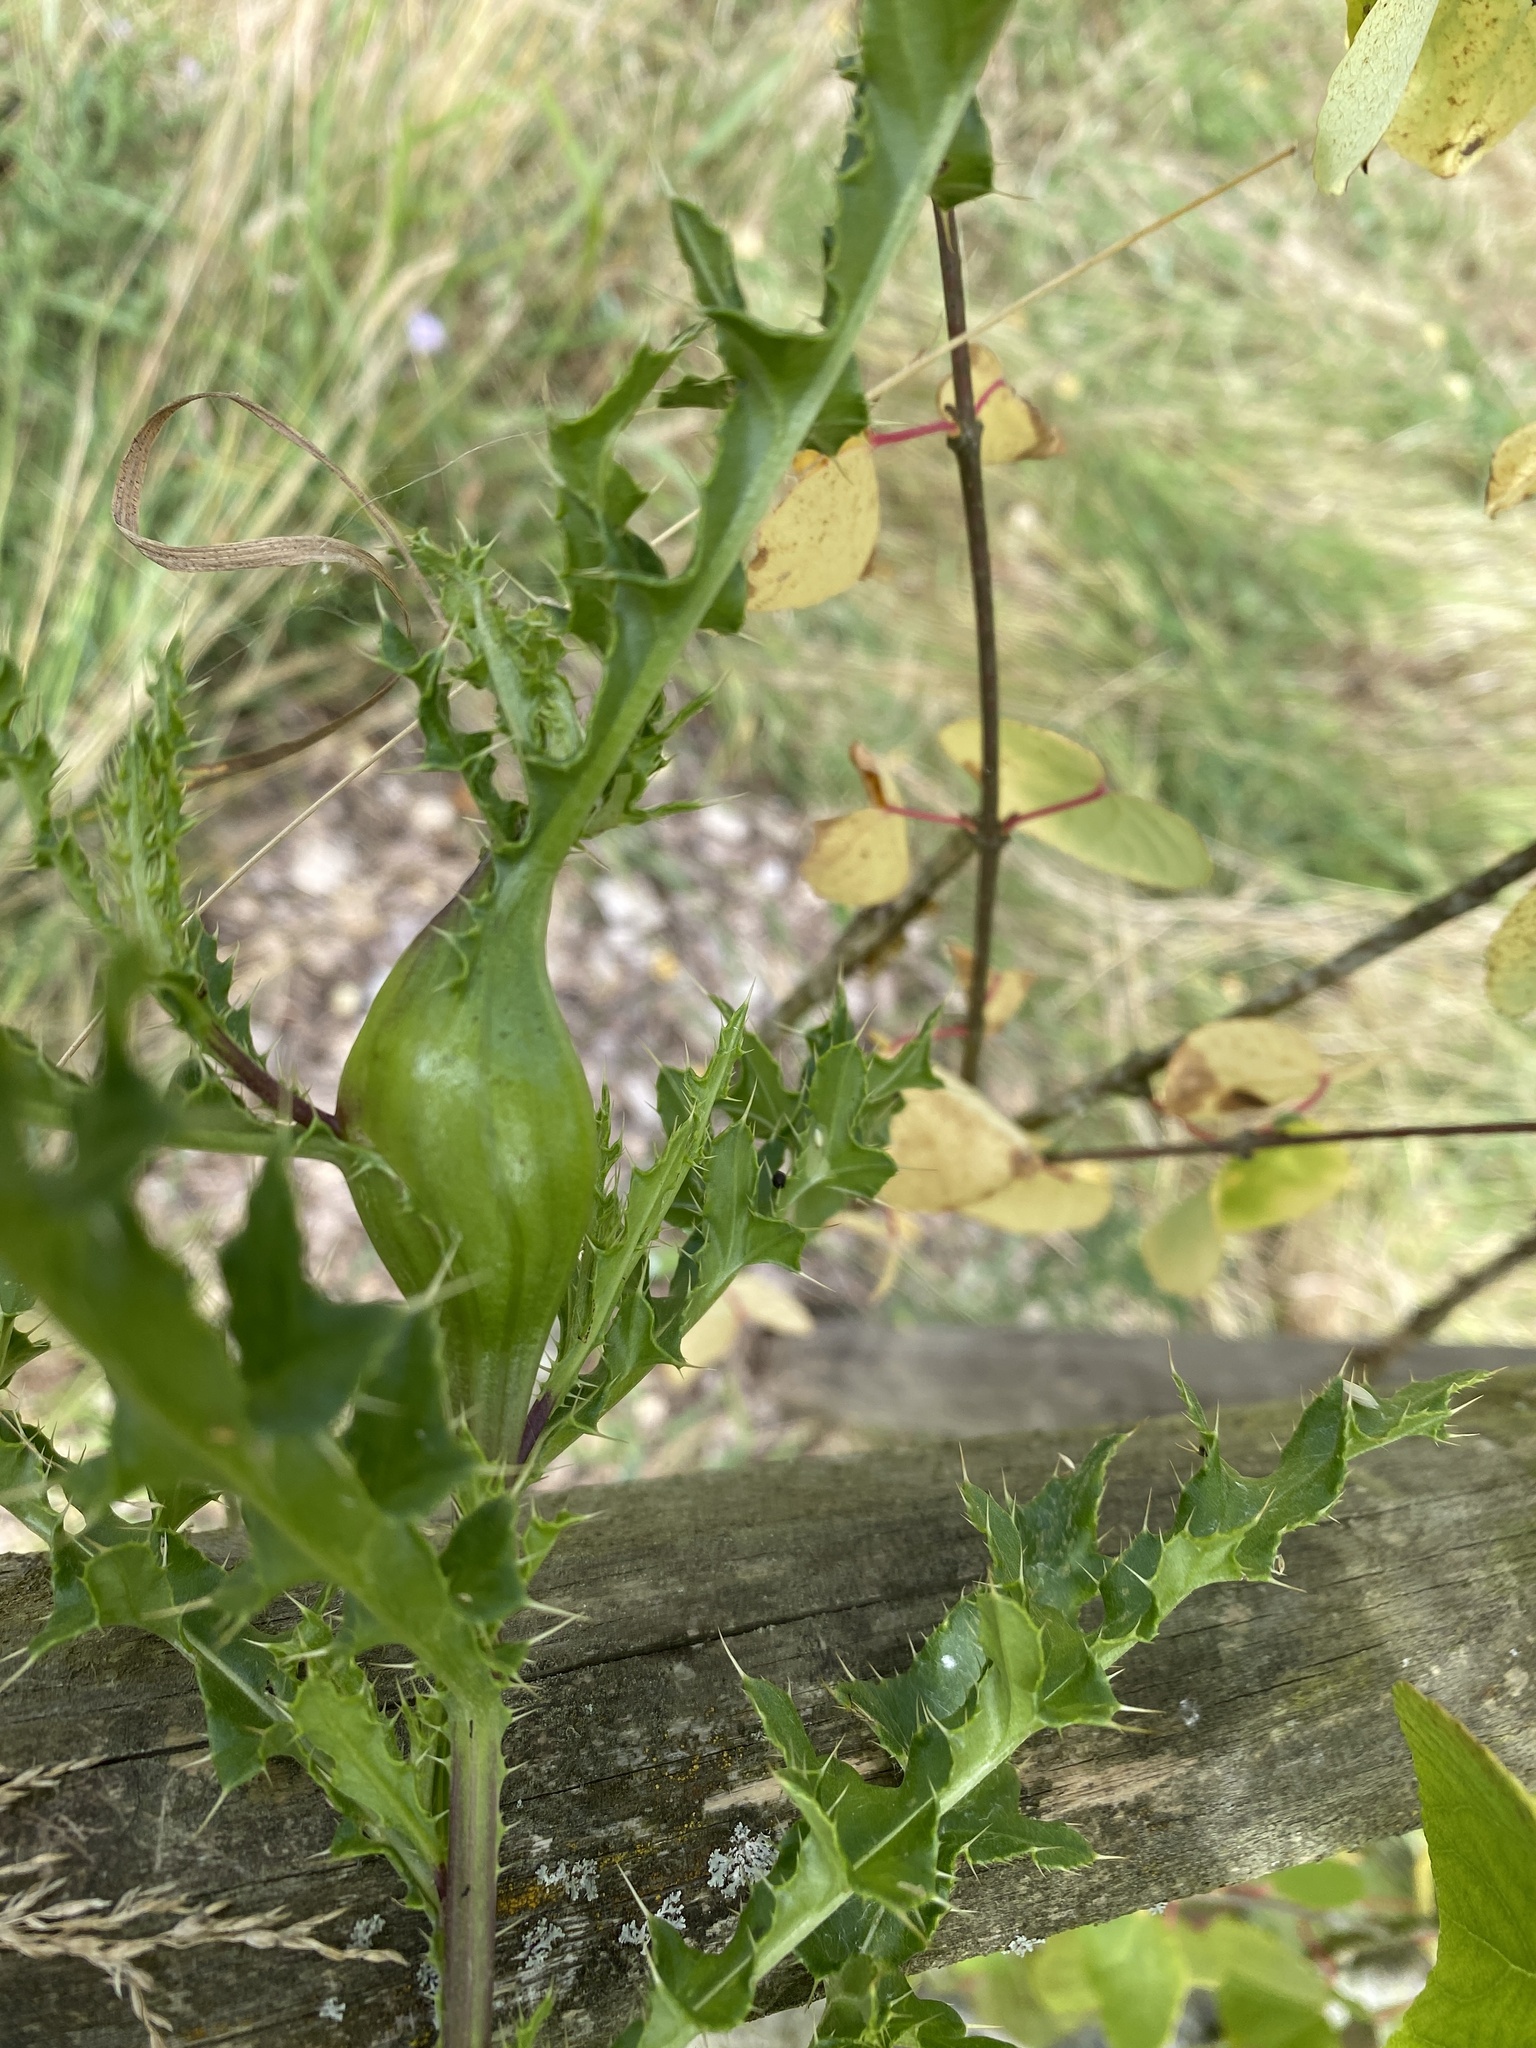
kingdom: Animalia
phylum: Arthropoda
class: Insecta
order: Diptera
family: Tephritidae
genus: Urophora
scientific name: Urophora cardui
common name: Fruit fly
